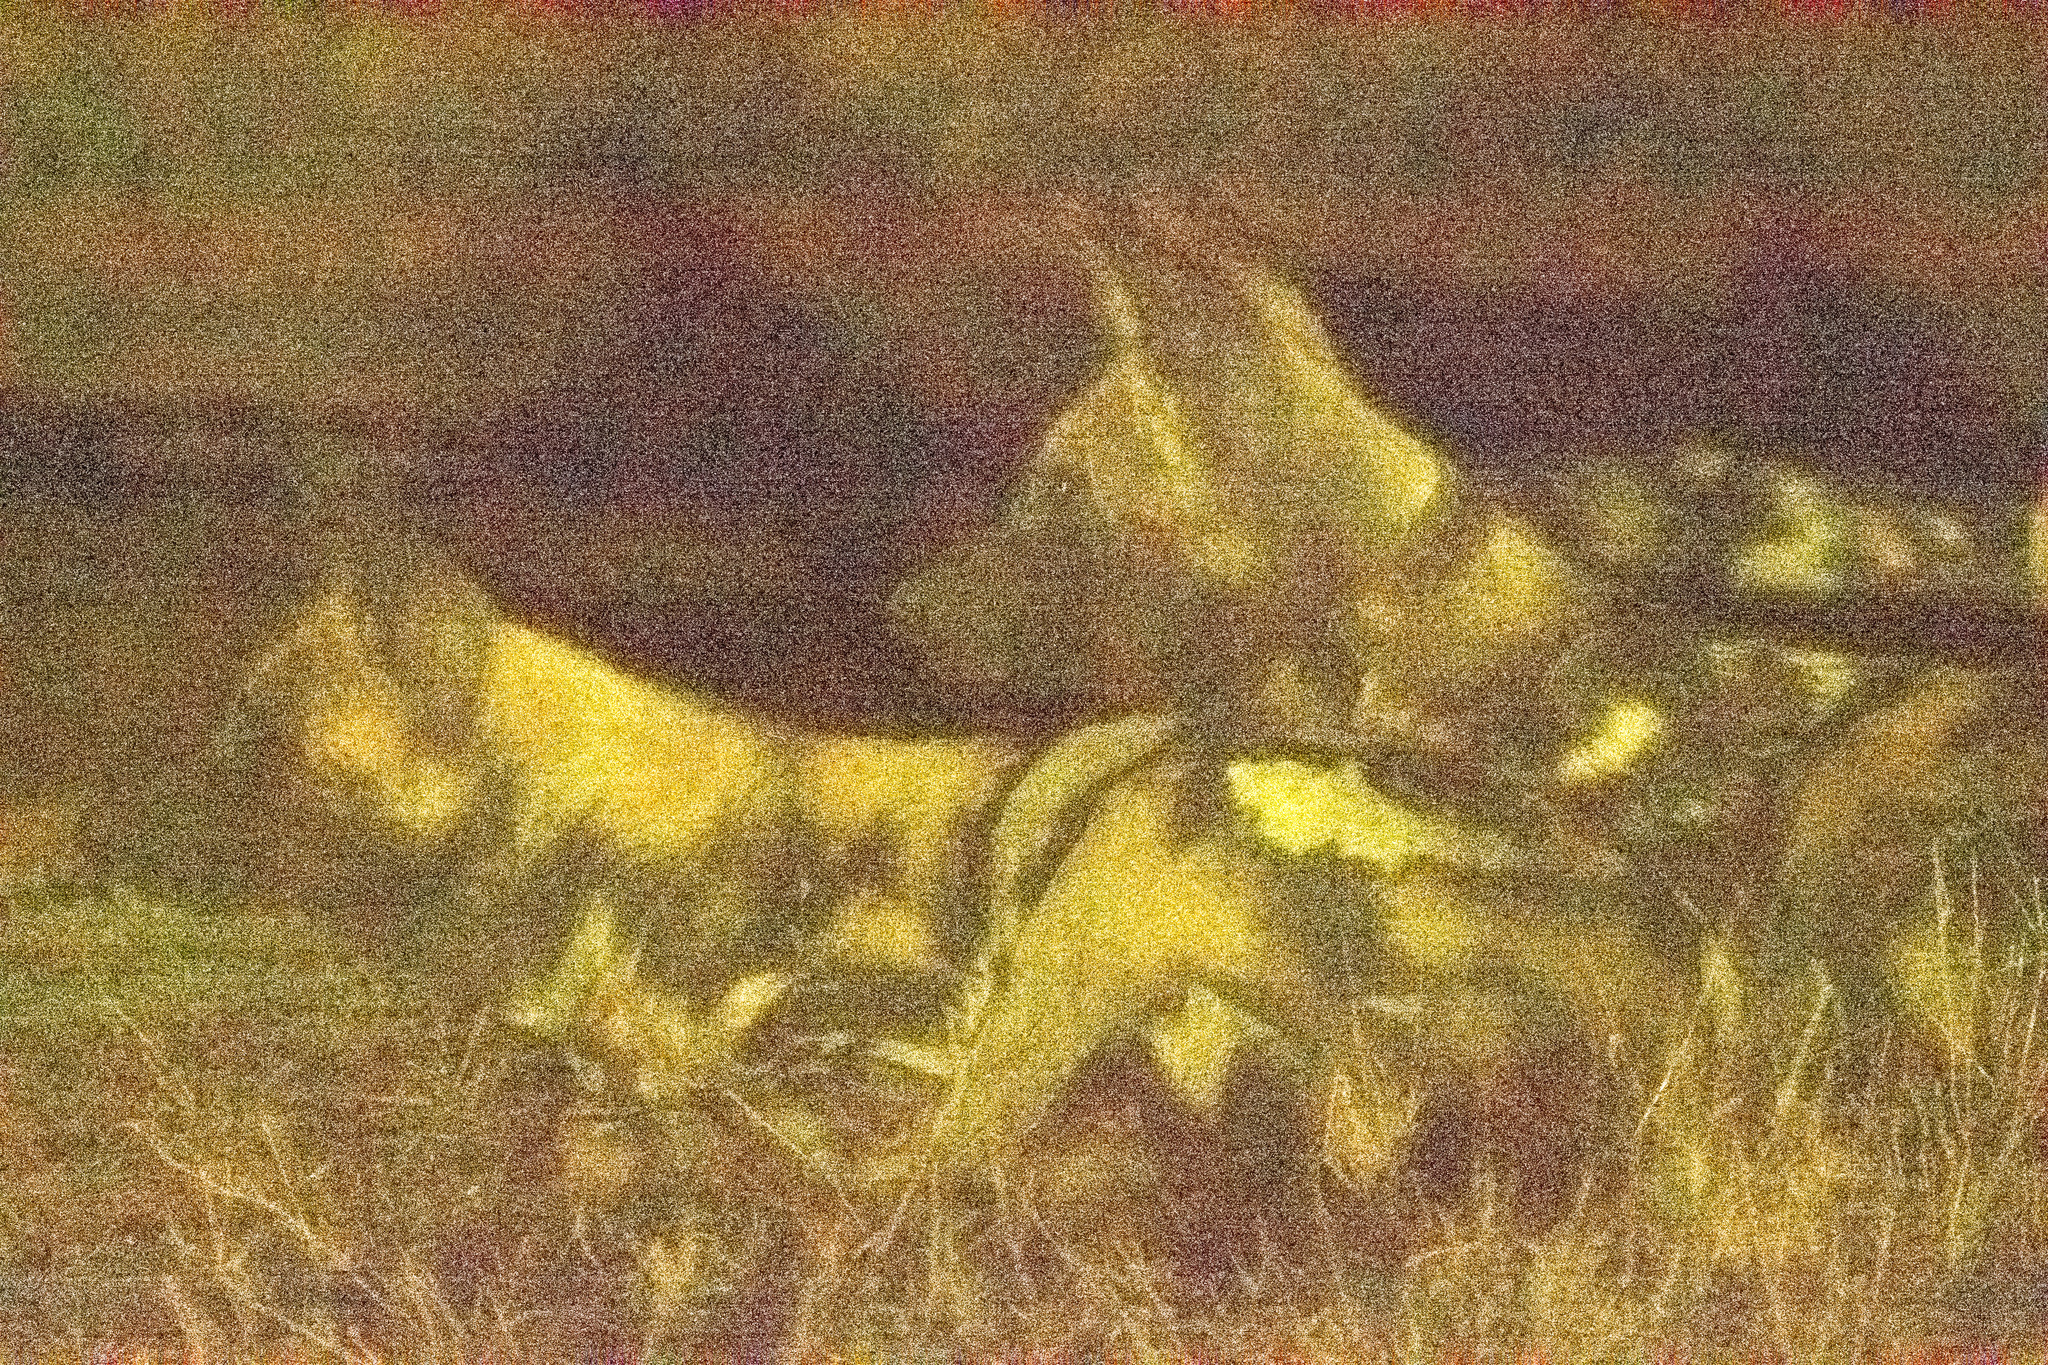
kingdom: Animalia
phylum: Chordata
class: Mammalia
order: Carnivora
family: Canidae
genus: Lycaon
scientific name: Lycaon pictus
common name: African wild dog
